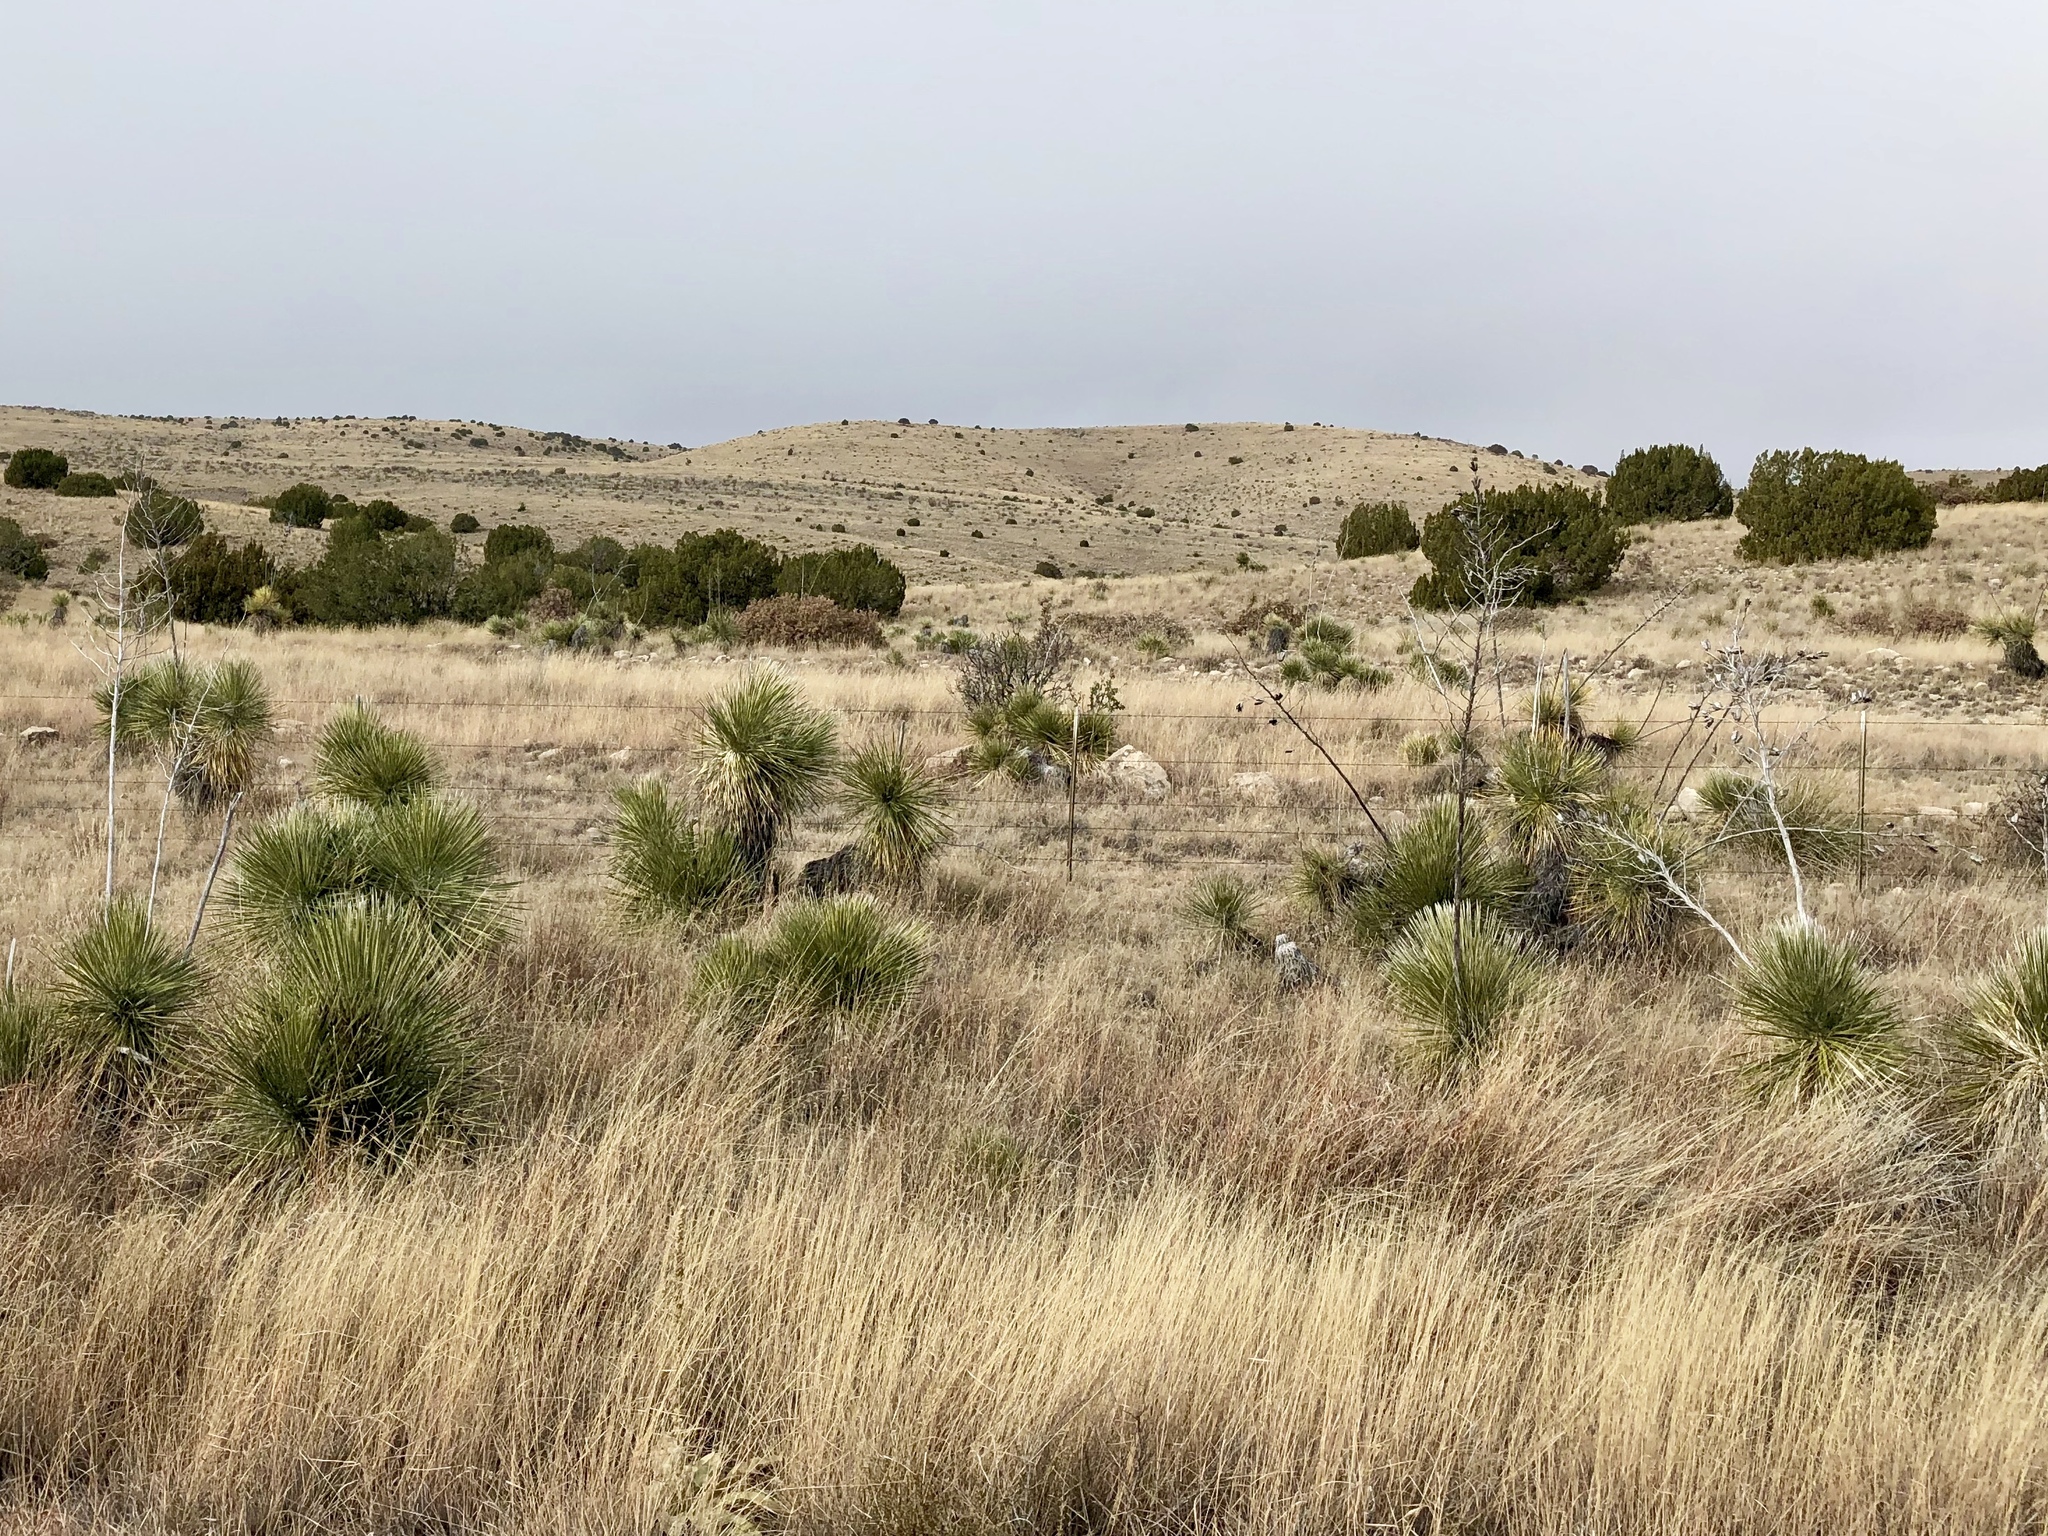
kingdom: Plantae
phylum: Tracheophyta
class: Liliopsida
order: Asparagales
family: Asparagaceae
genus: Yucca
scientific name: Yucca elata
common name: Palmella
